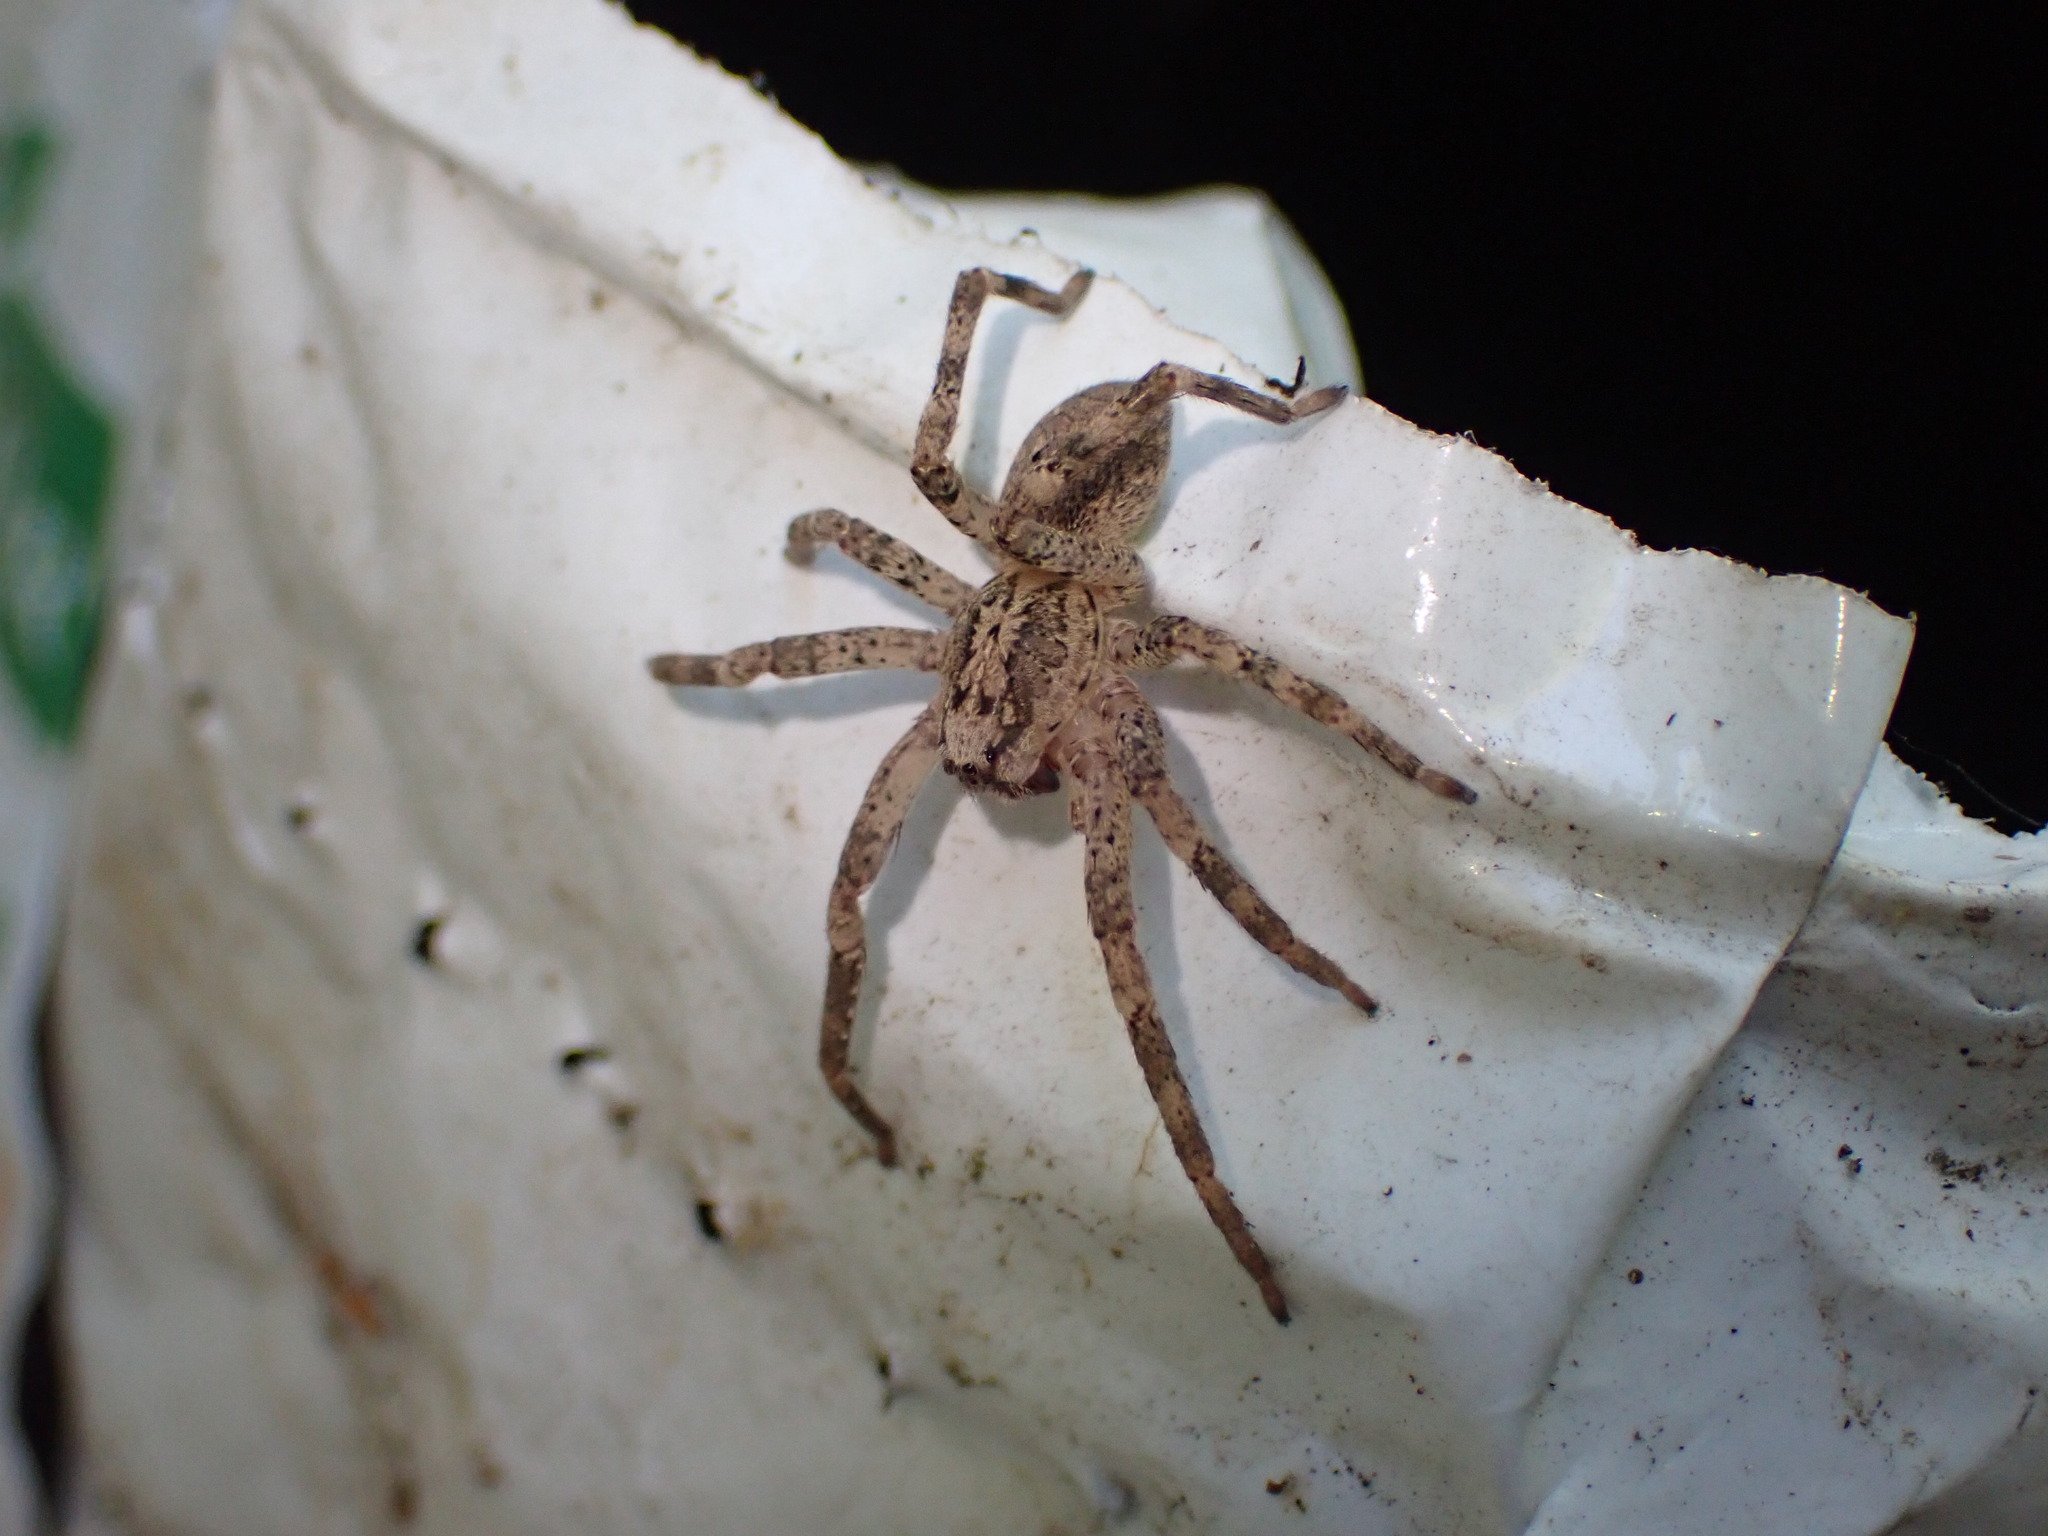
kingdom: Animalia
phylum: Arthropoda
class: Arachnida
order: Araneae
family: Zoropsidae
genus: Zoropsis
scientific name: Zoropsis spinimana
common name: Zoropsid spider
